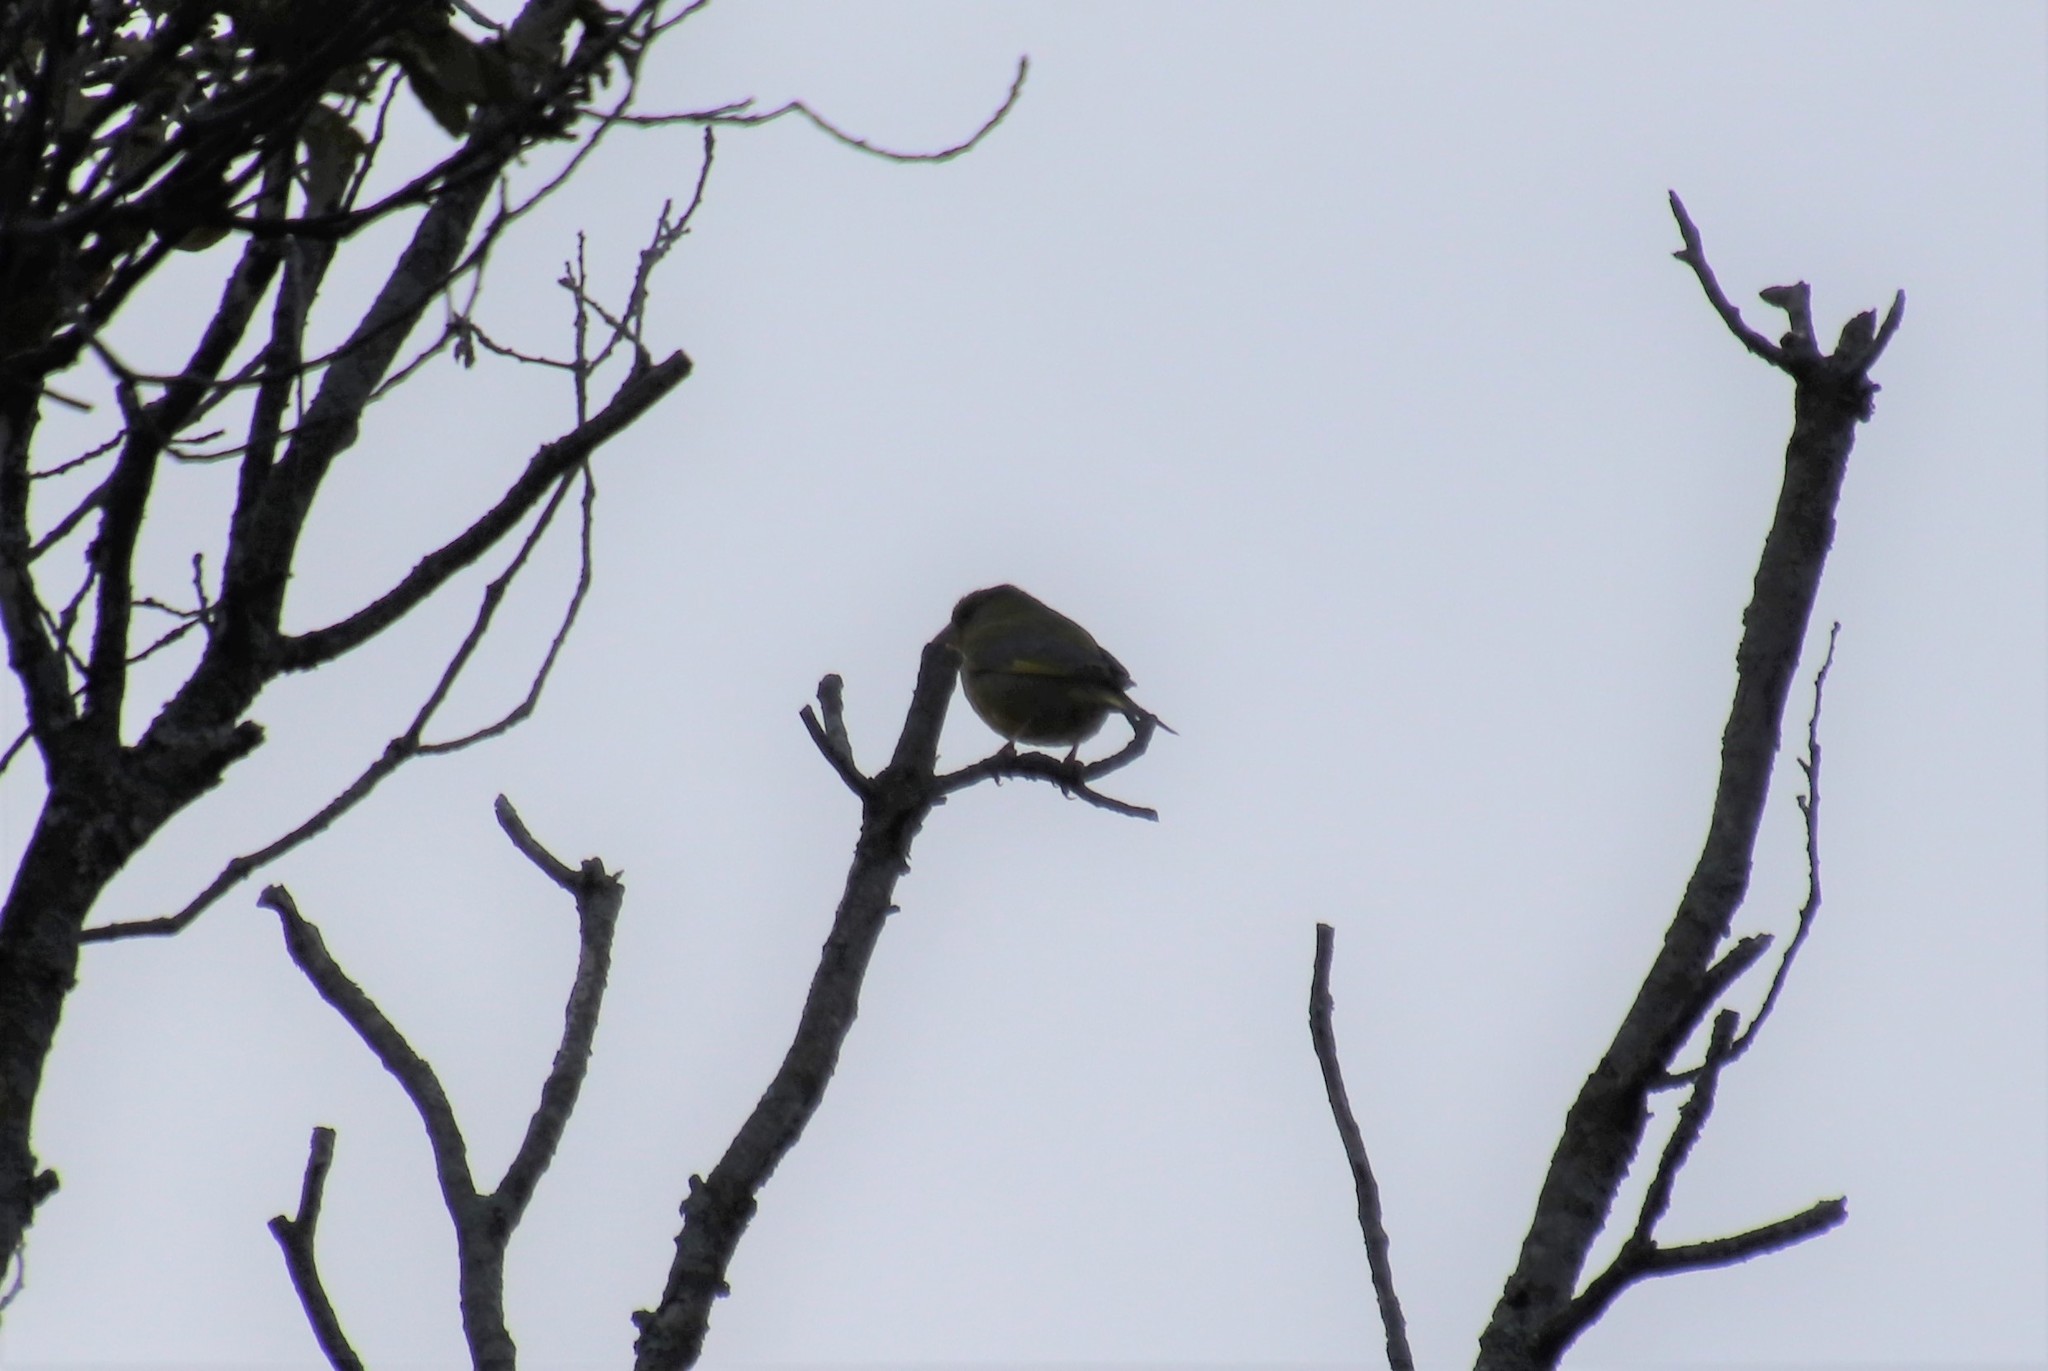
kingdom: Plantae
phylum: Tracheophyta
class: Liliopsida
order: Poales
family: Poaceae
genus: Chloris
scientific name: Chloris chloris
